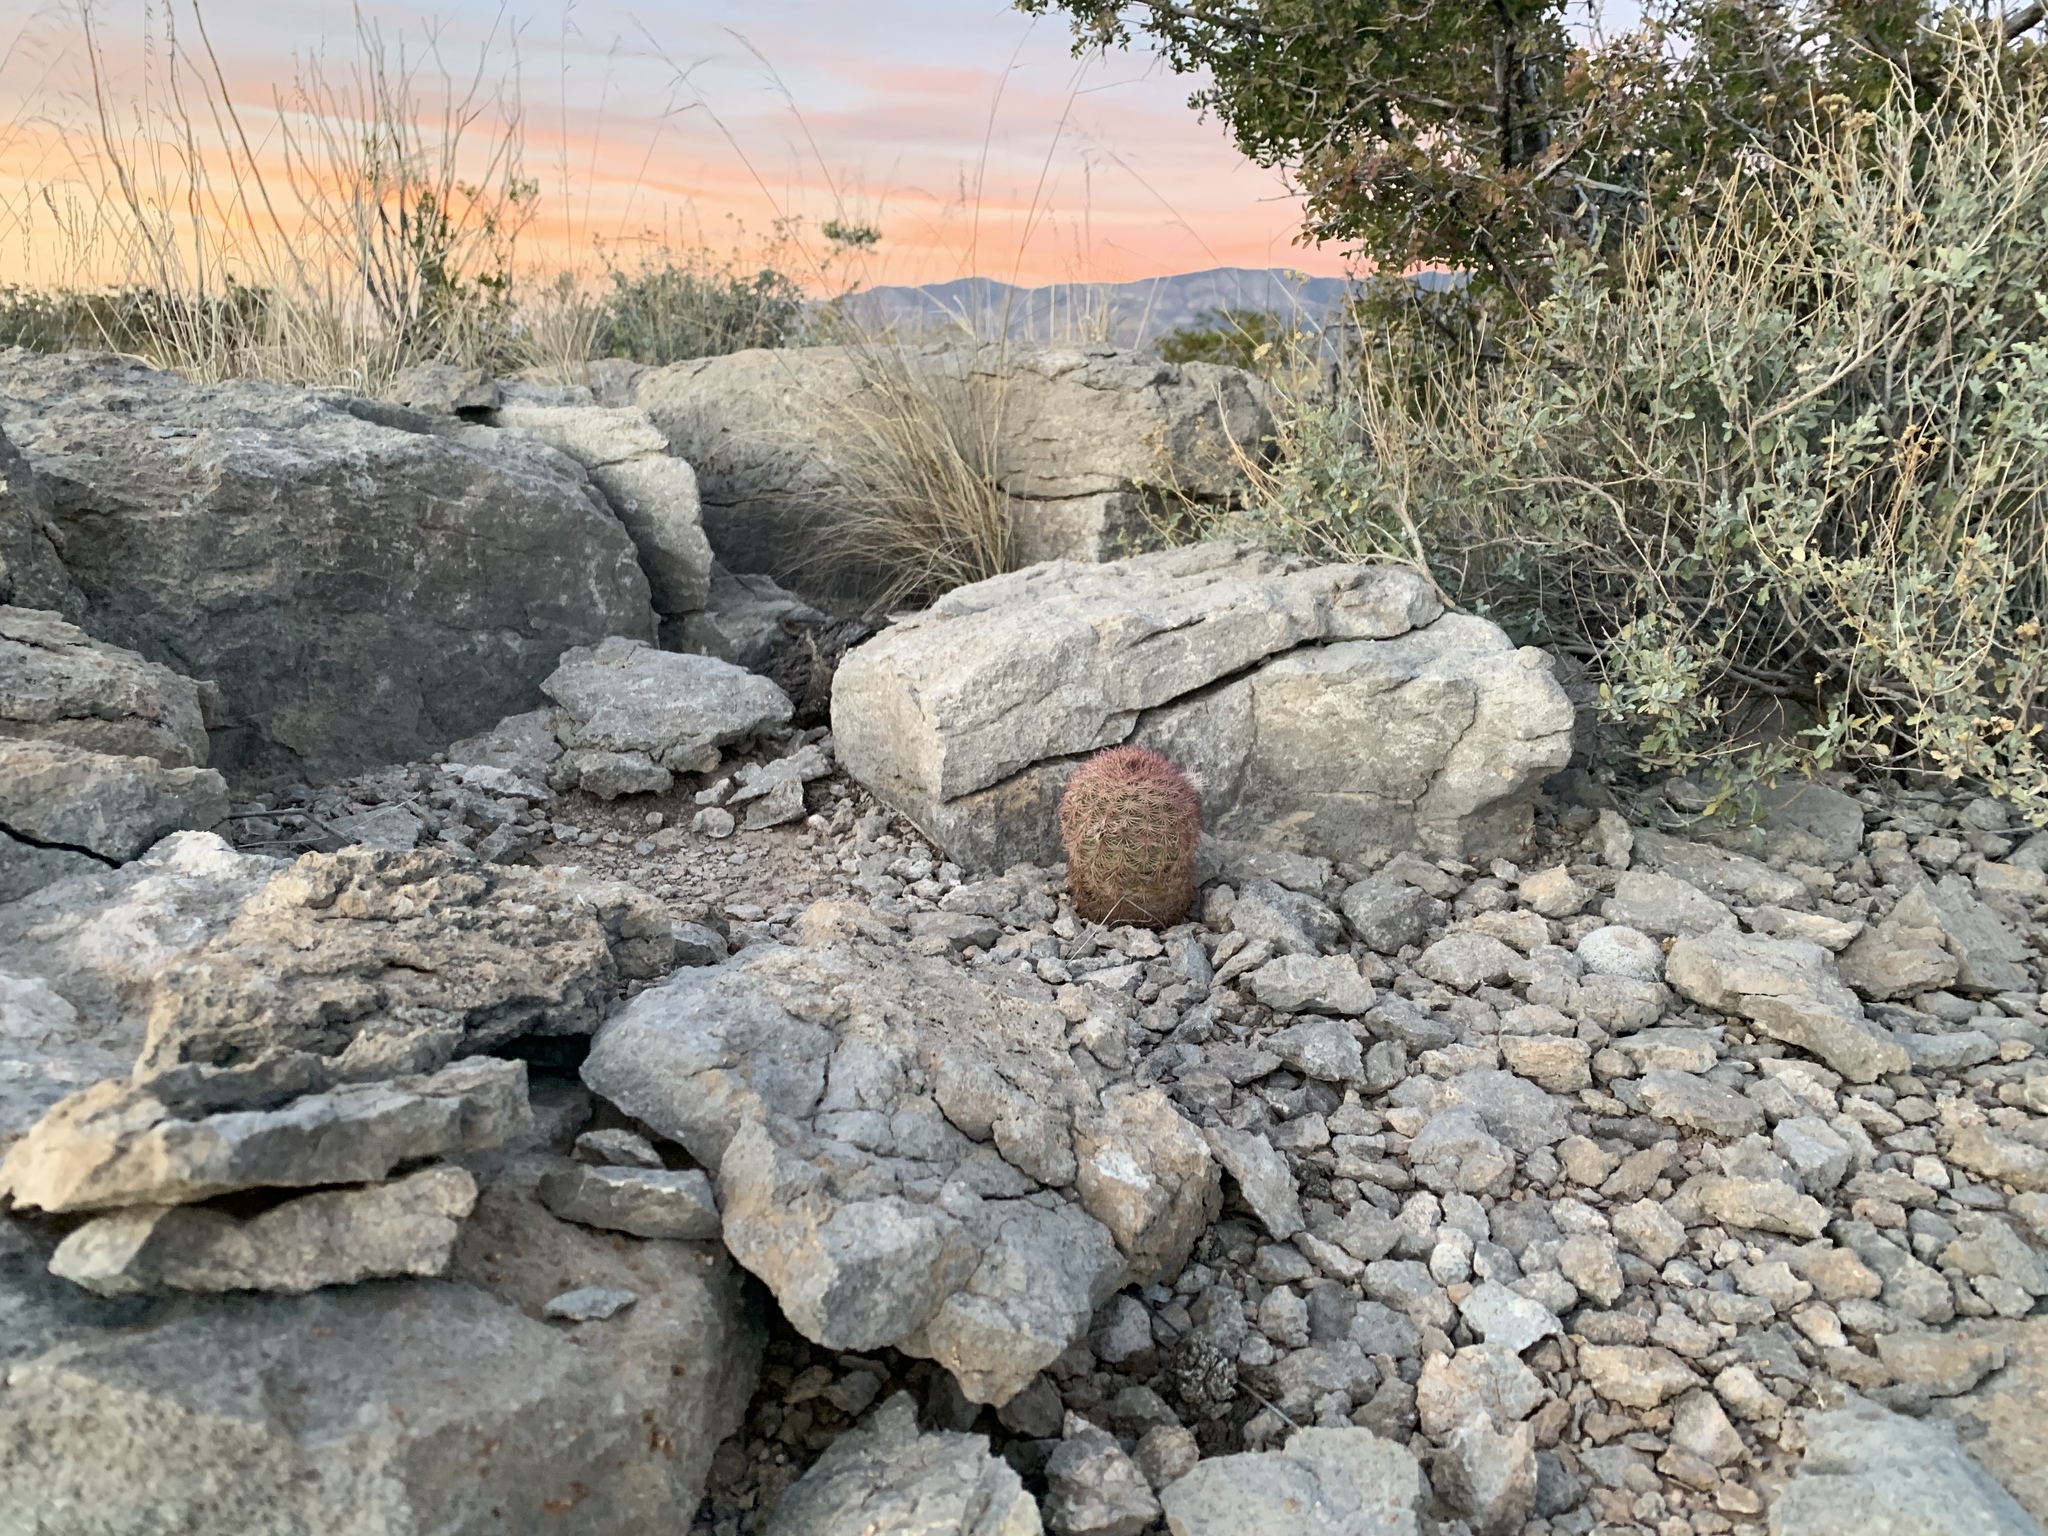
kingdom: Plantae
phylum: Tracheophyta
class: Magnoliopsida
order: Caryophyllales
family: Cactaceae
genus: Echinocereus
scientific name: Echinocereus dasyacanthus
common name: Spiny hedgehog cactus
